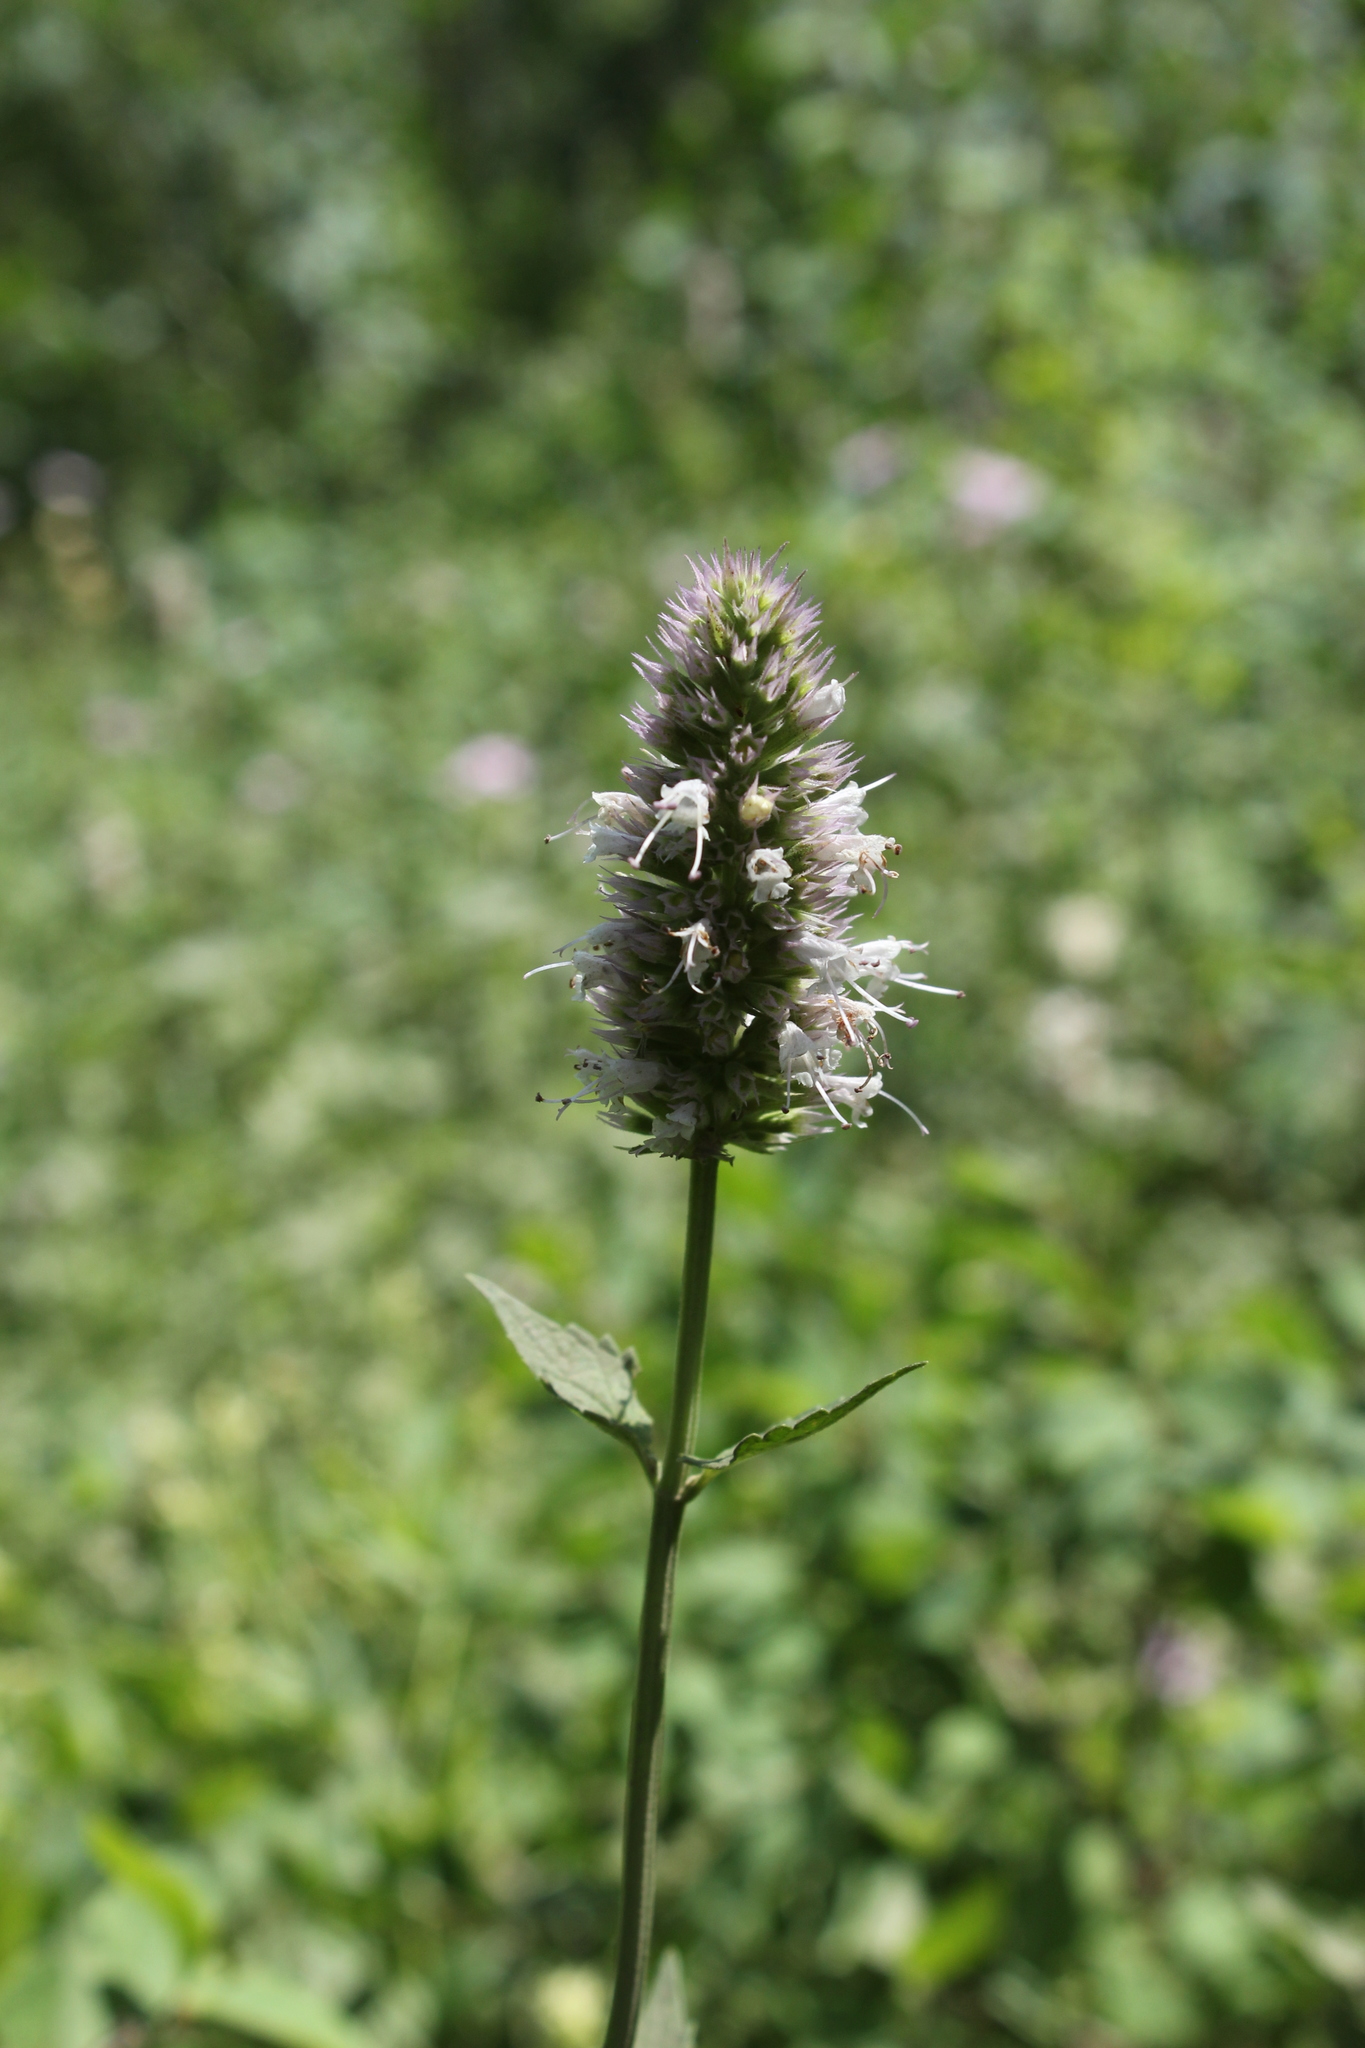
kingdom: Plantae
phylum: Tracheophyta
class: Magnoliopsida
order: Lamiales
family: Lamiaceae
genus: Agastache
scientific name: Agastache urticifolia
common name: Horsemint giant hyssop
